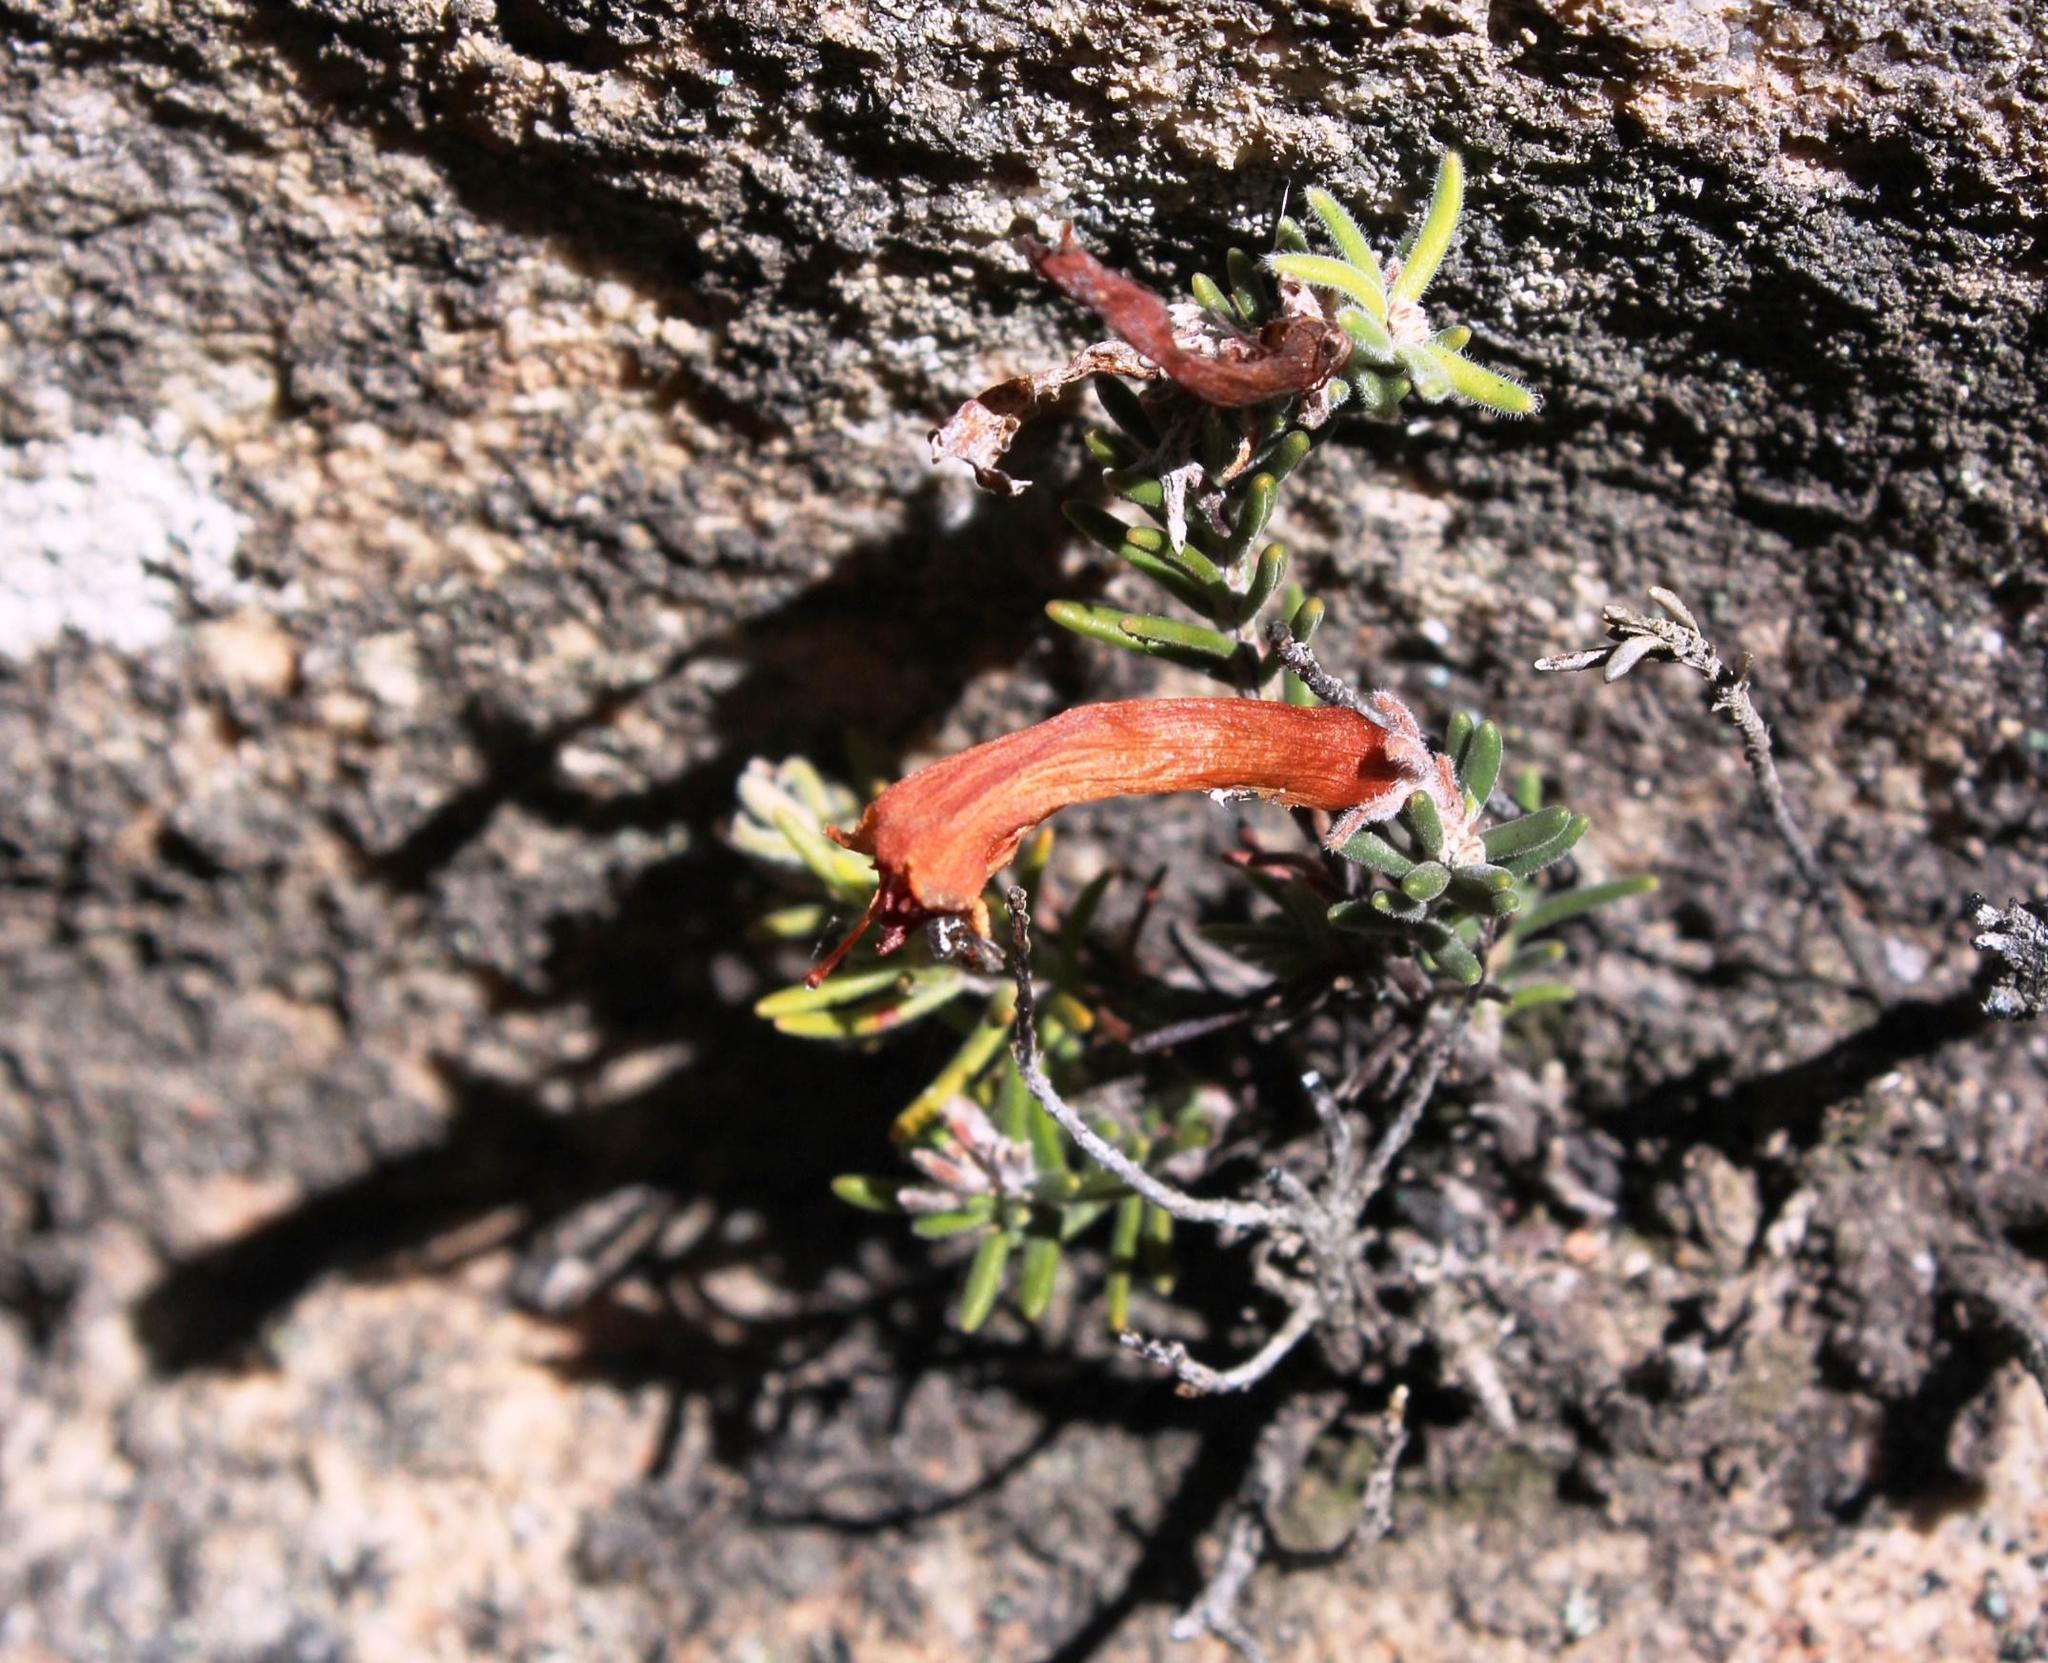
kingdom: Plantae
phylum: Tracheophyta
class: Magnoliopsida
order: Ericales
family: Ericaceae
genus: Erica
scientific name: Erica maximiliani
